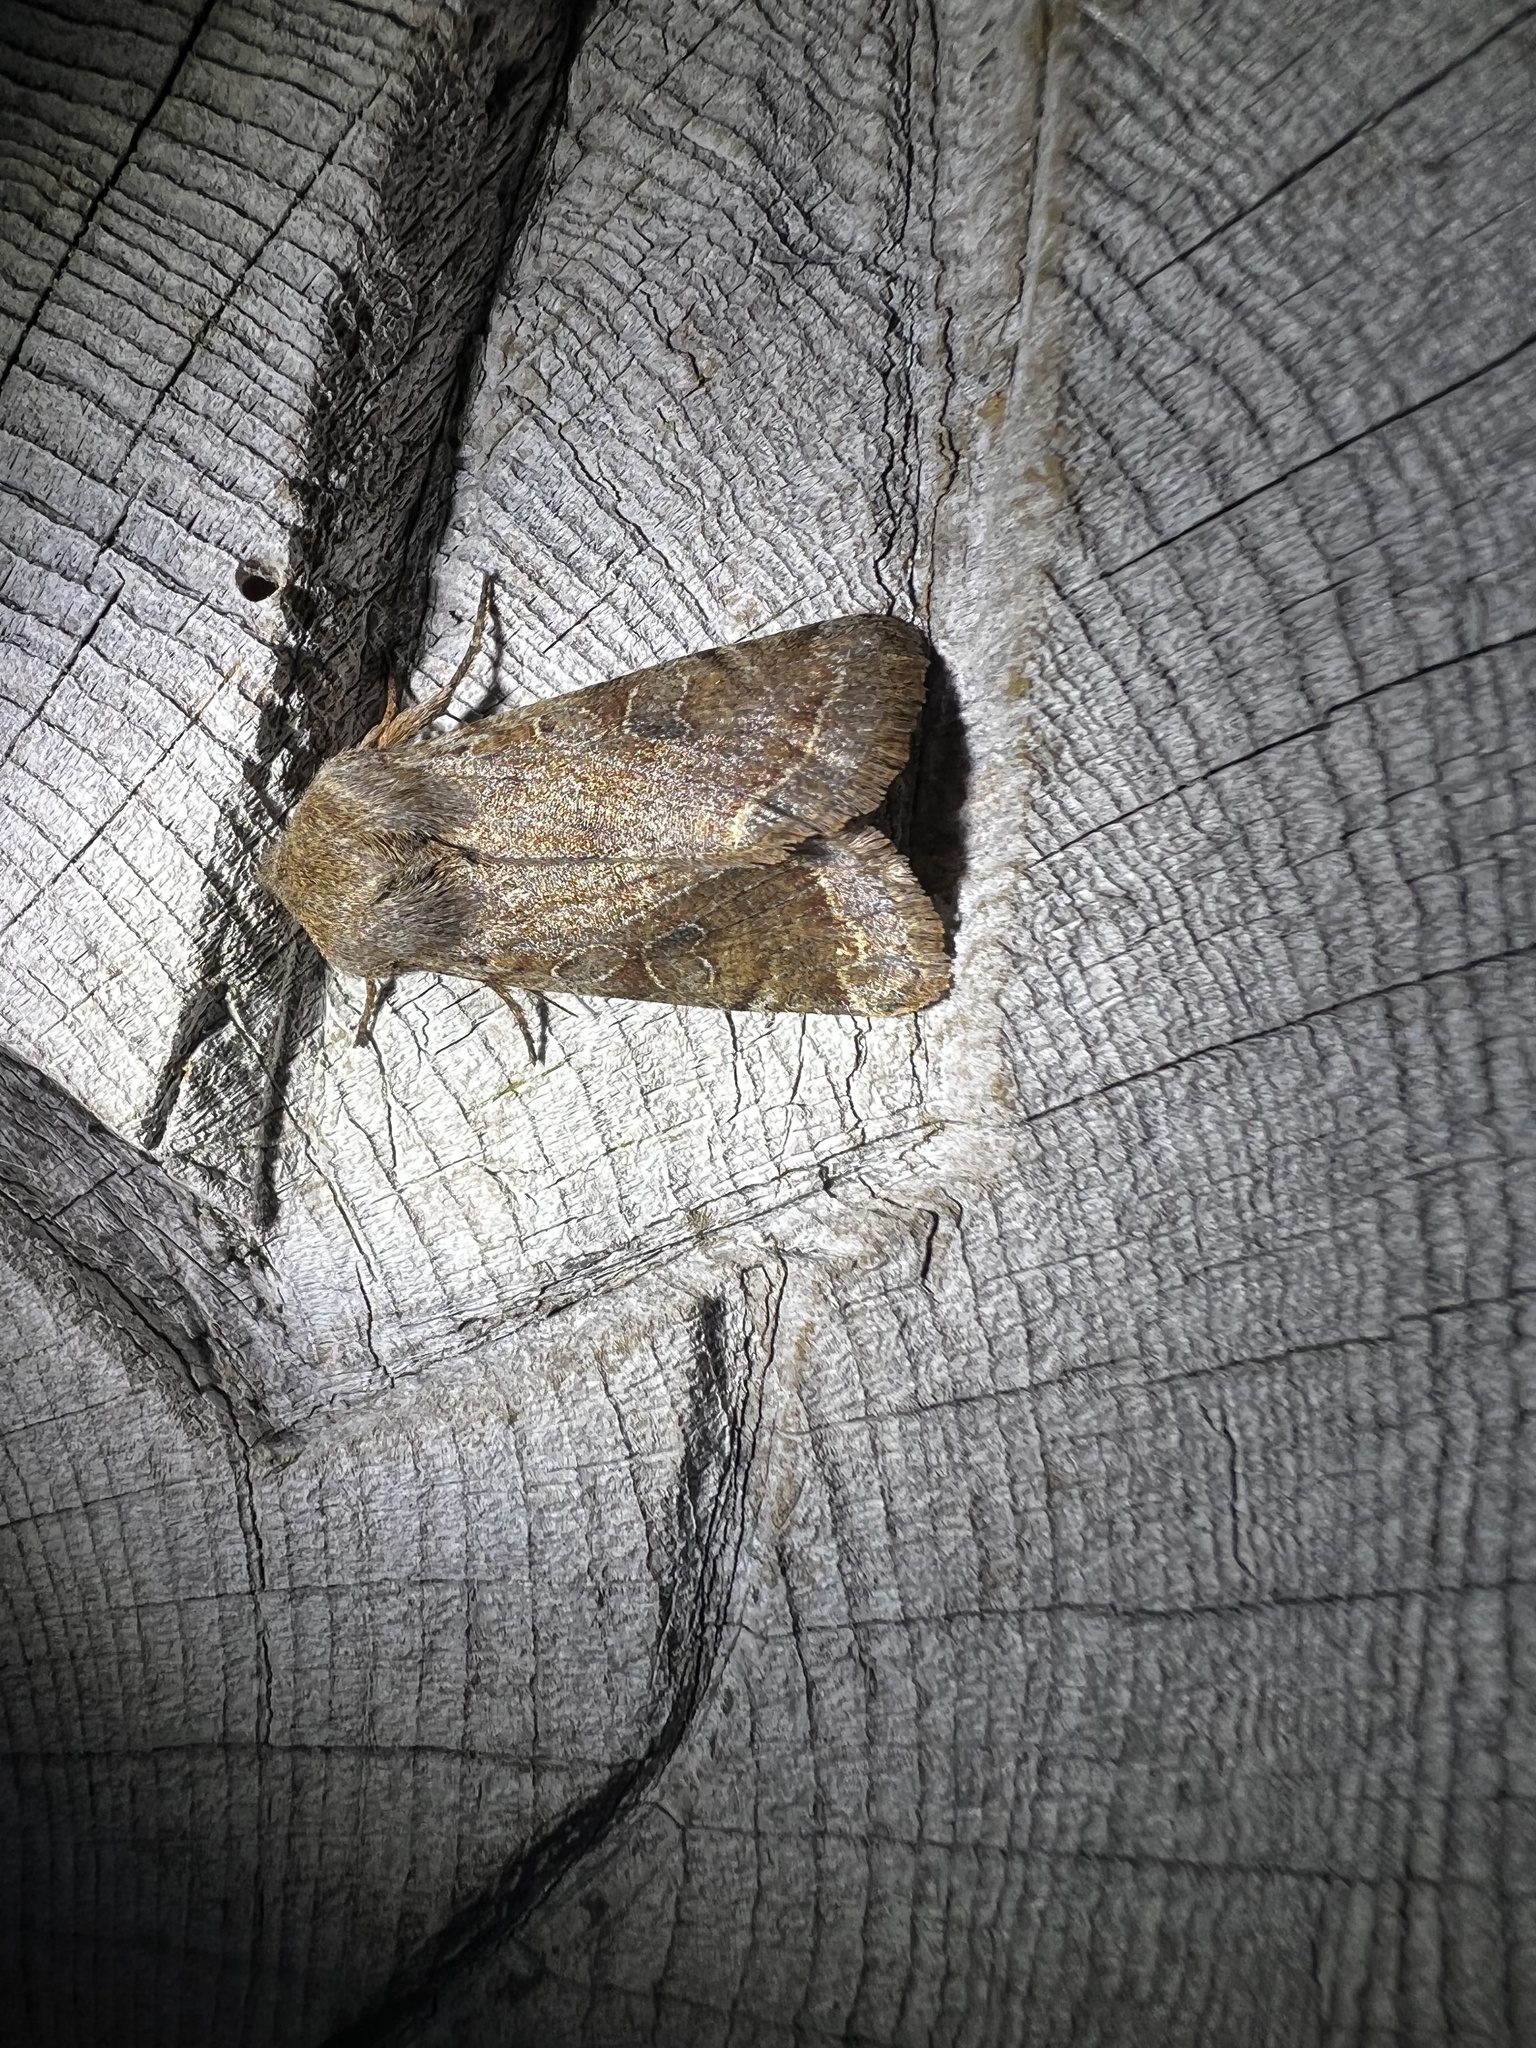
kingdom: Animalia
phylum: Arthropoda
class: Insecta
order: Lepidoptera
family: Noctuidae
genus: Orthosia
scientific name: Orthosia hibisci
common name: Green fruitworm
